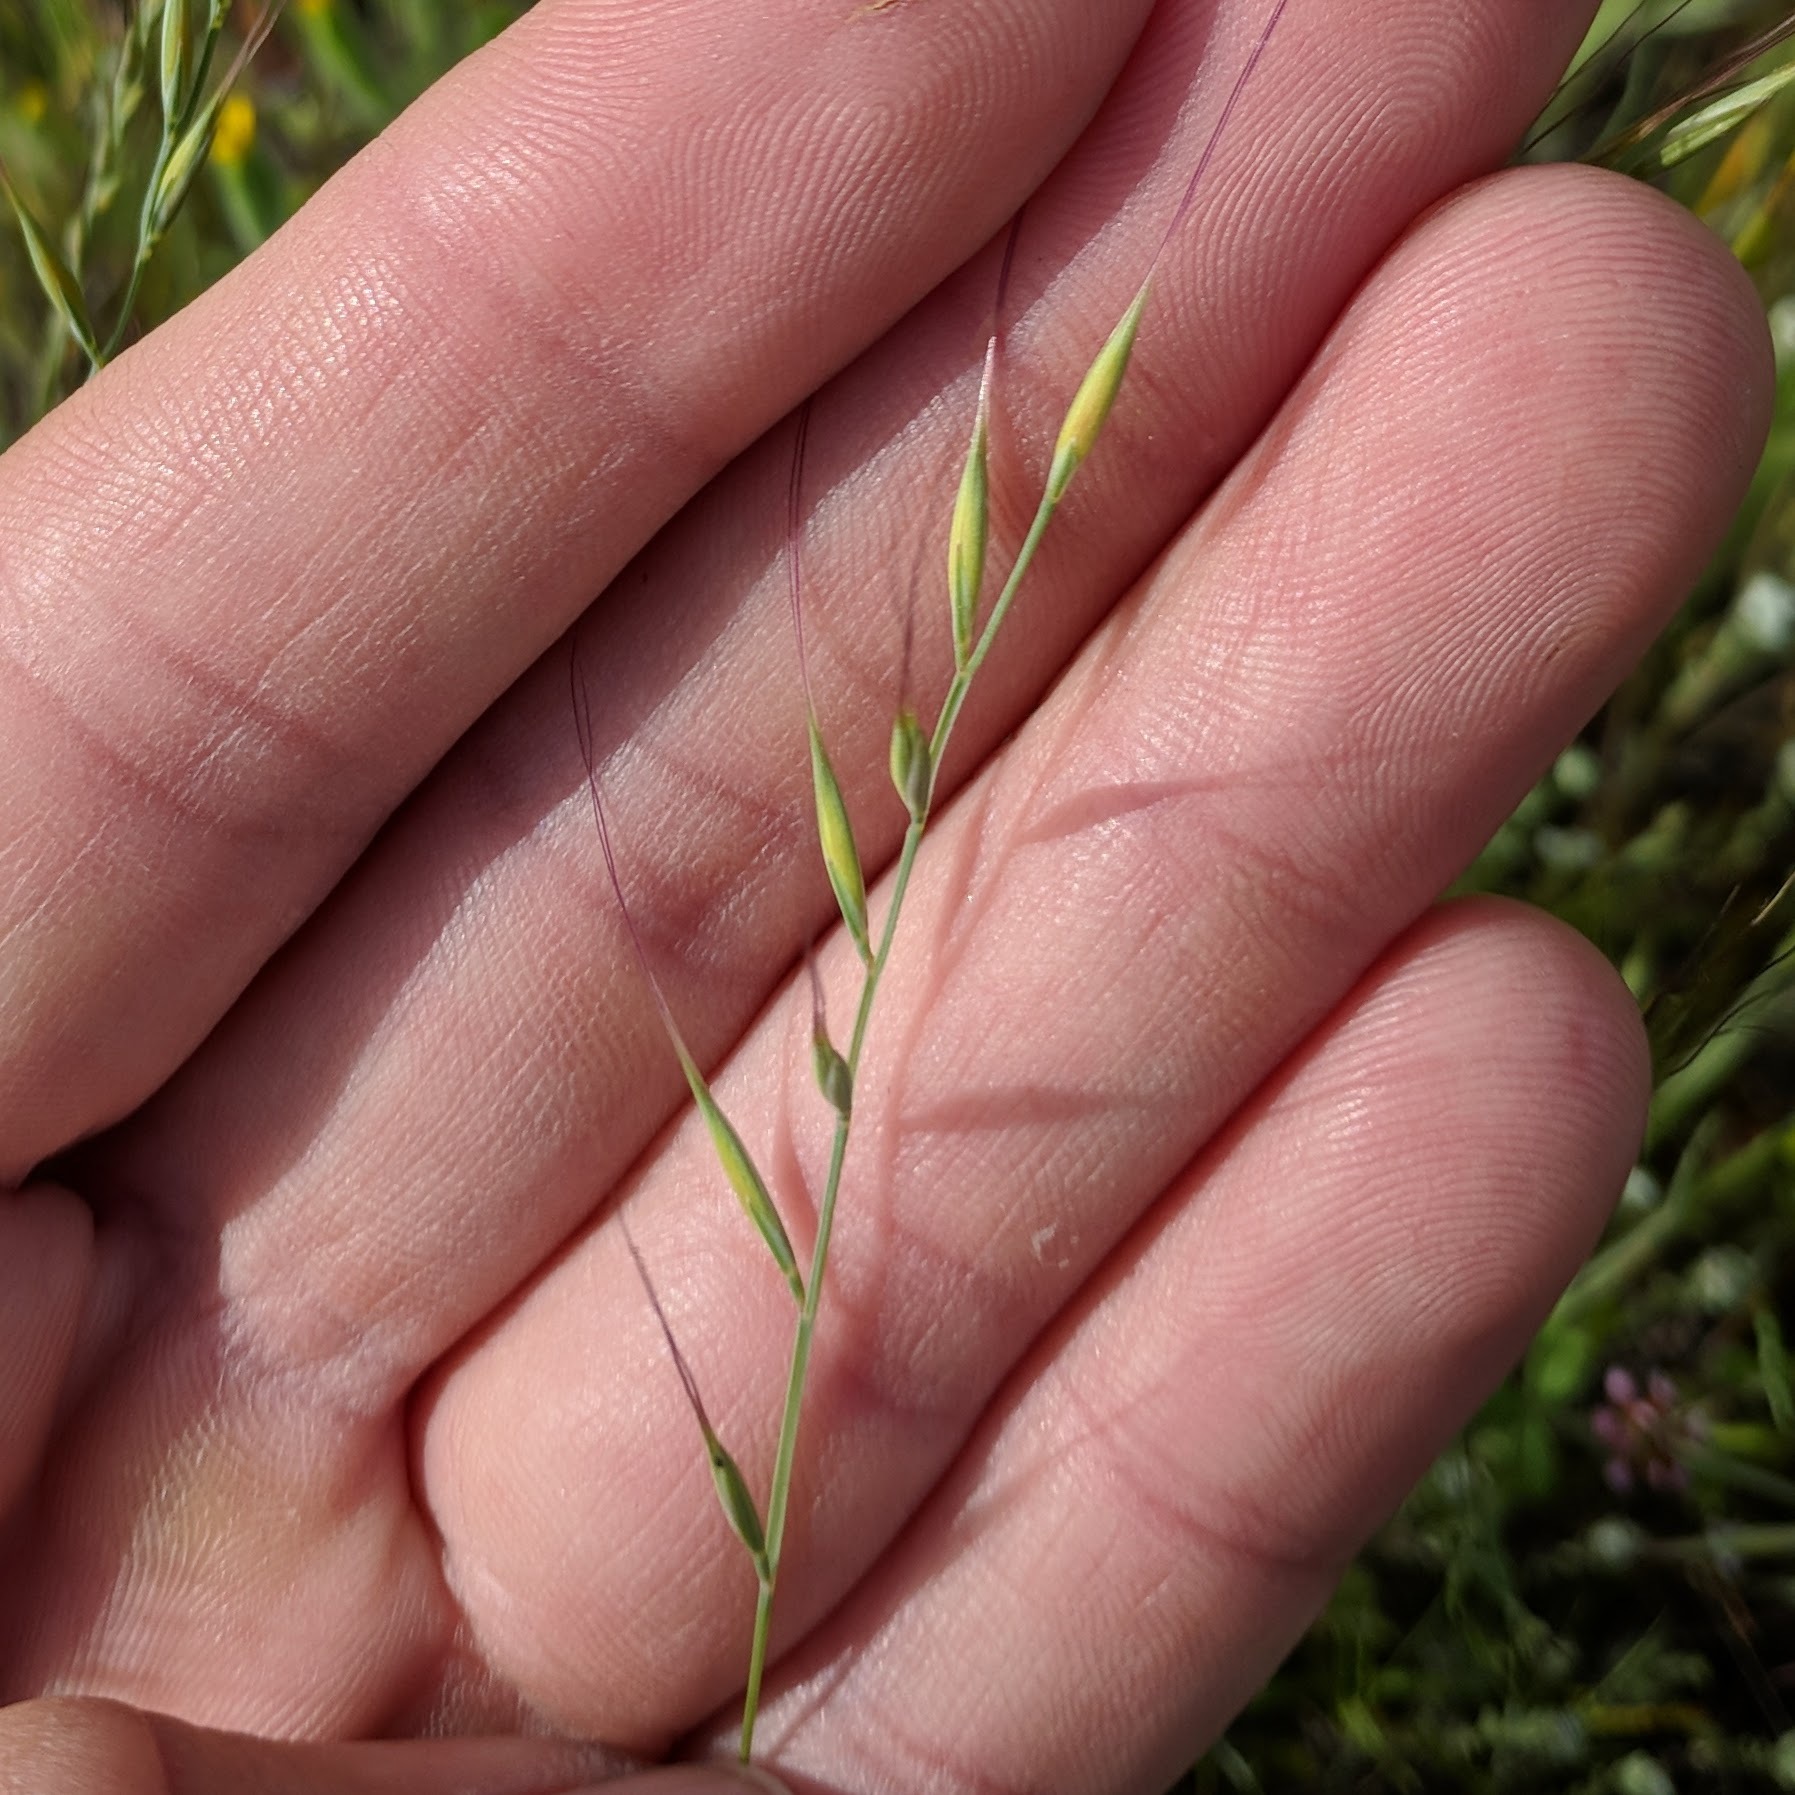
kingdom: Plantae
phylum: Tracheophyta
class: Liliopsida
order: Poales
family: Poaceae
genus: Festuca
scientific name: Festuca microstachys
